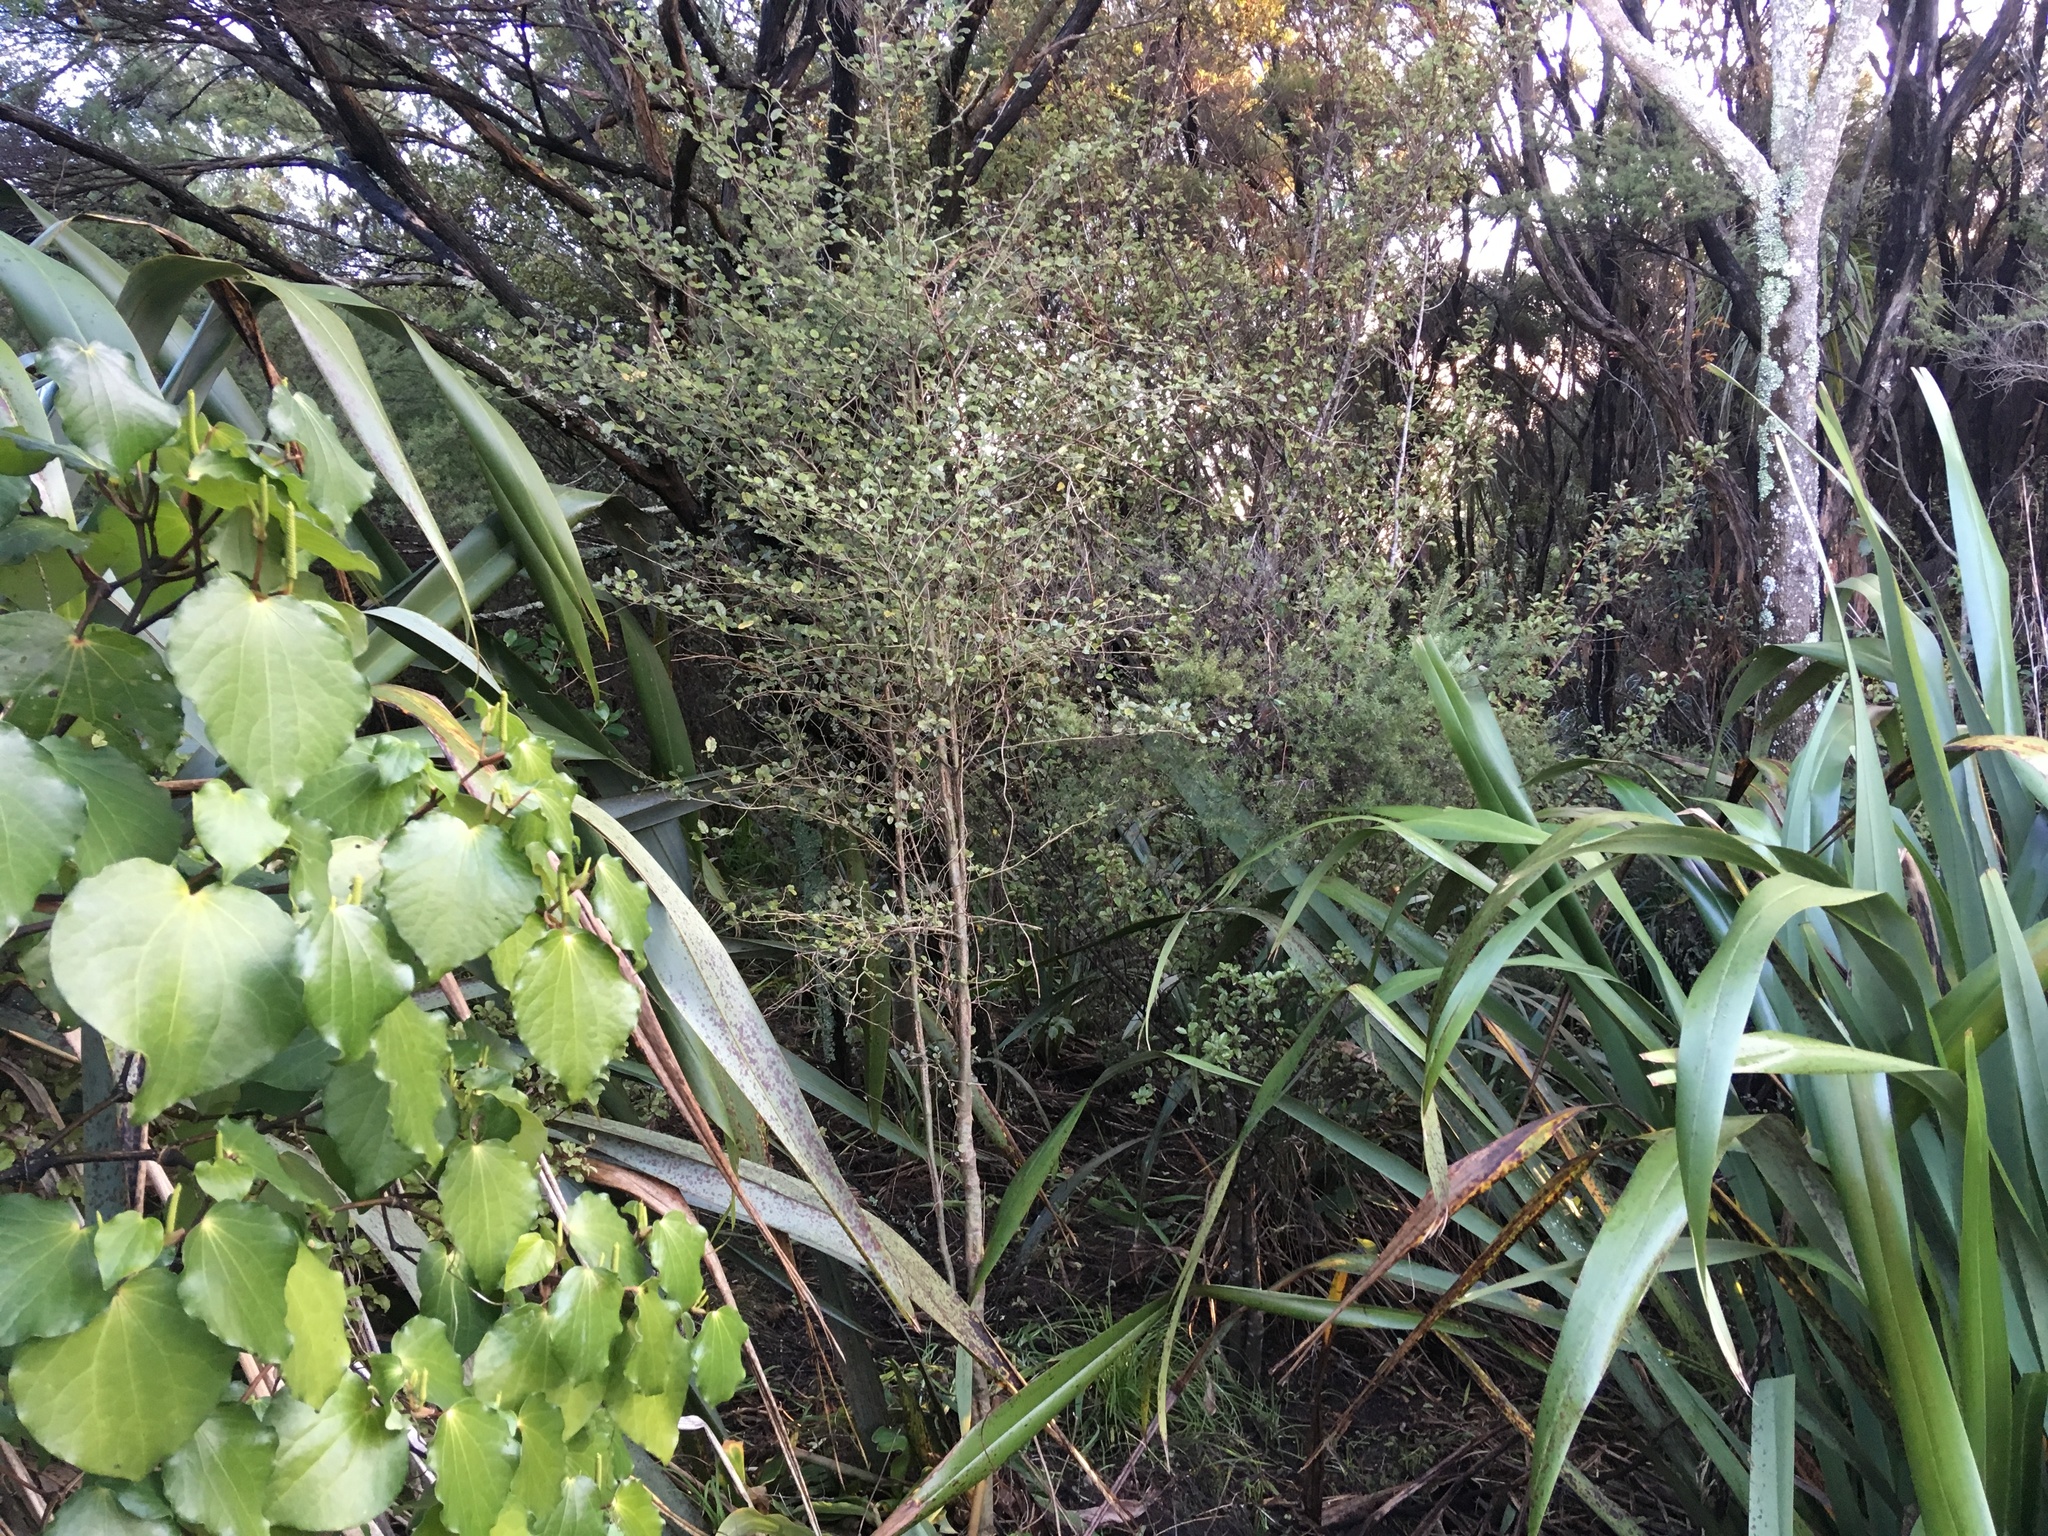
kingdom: Plantae
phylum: Tracheophyta
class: Magnoliopsida
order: Asterales
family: Rousseaceae
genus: Carpodetus
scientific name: Carpodetus serratus
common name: White mapau
